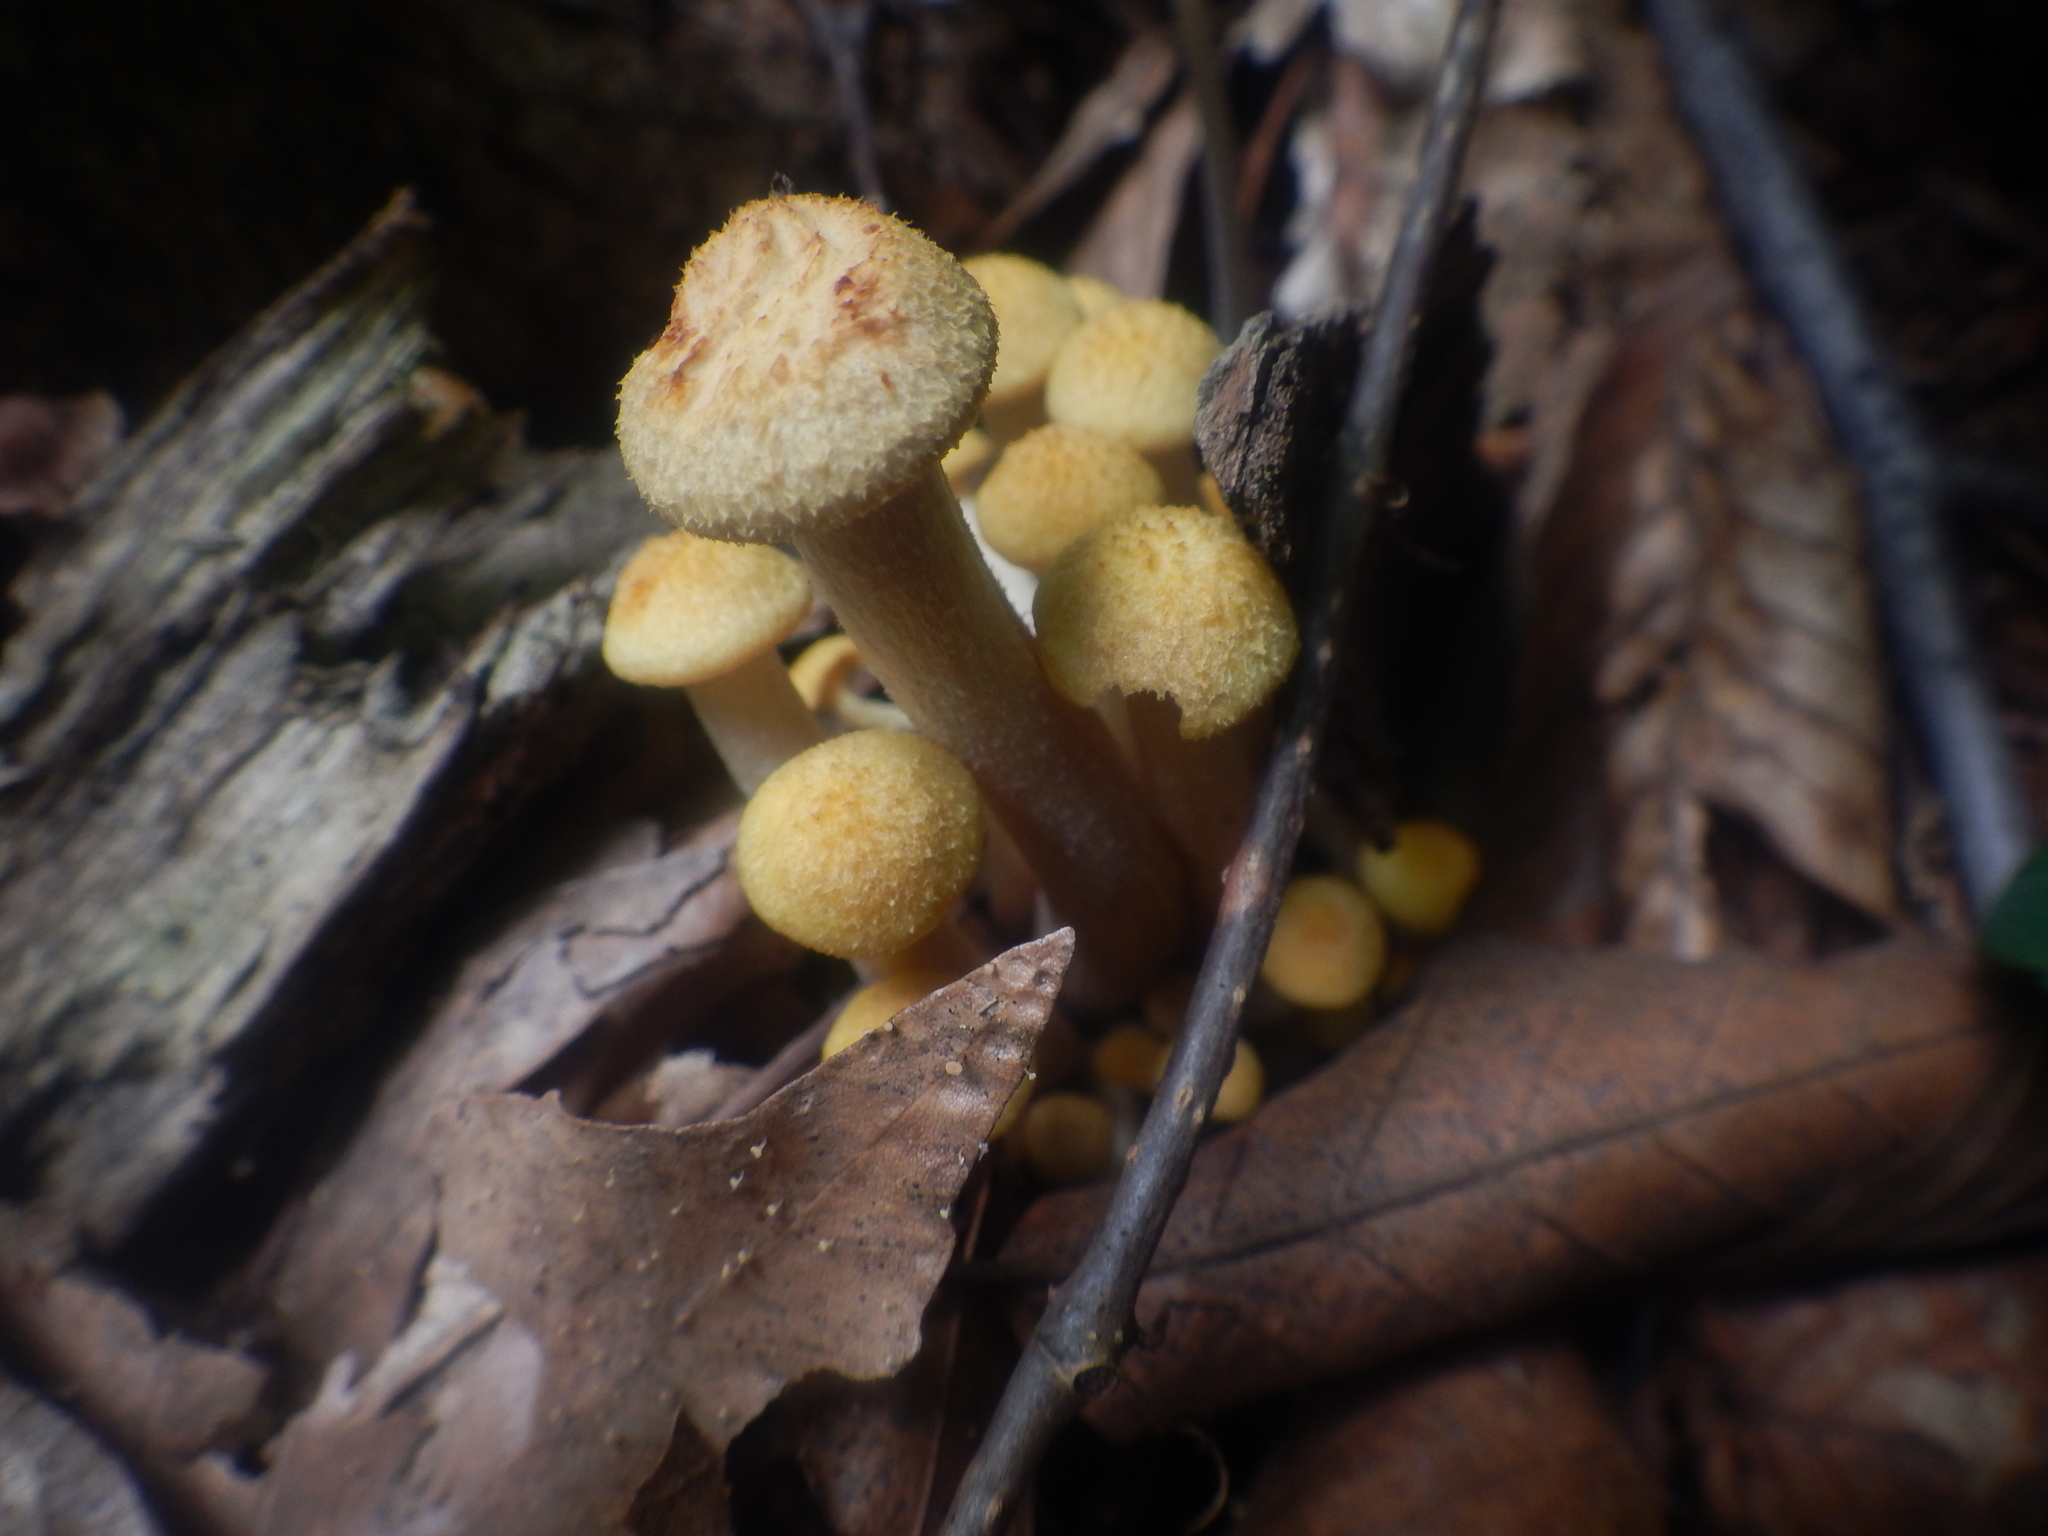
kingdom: Fungi
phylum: Basidiomycota
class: Agaricomycetes
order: Agaricales
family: Physalacriaceae
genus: Desarmillaria
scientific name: Desarmillaria caespitosa
